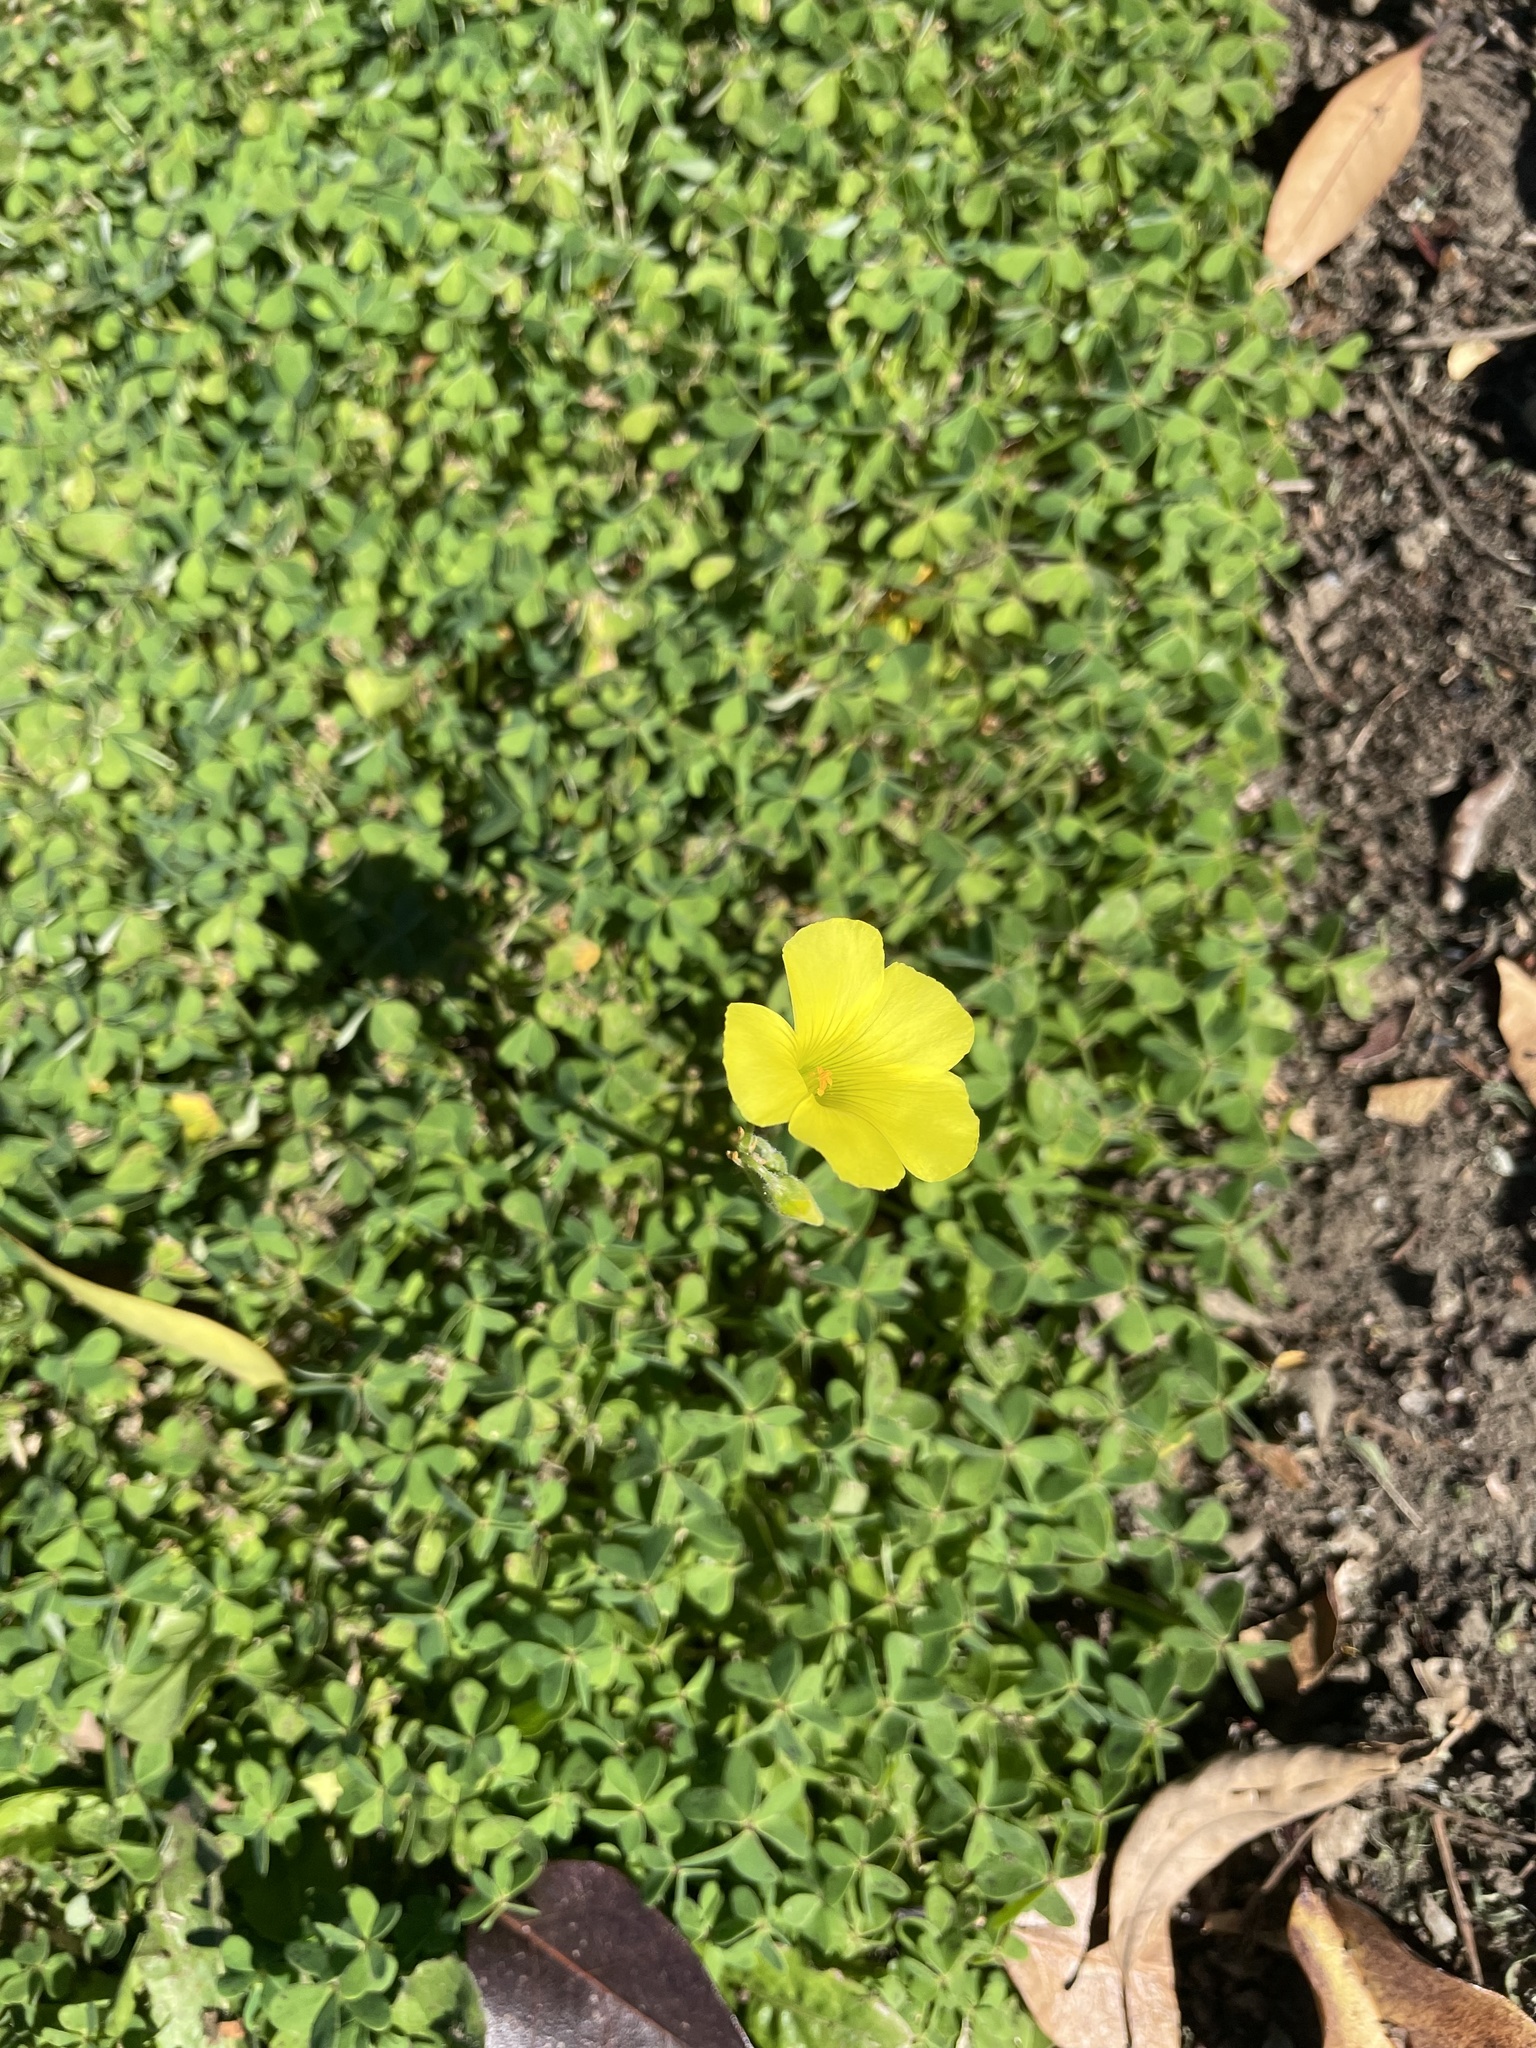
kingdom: Plantae
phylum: Tracheophyta
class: Magnoliopsida
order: Oxalidales
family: Oxalidaceae
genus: Oxalis
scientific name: Oxalis pes-caprae
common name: Bermuda-buttercup
